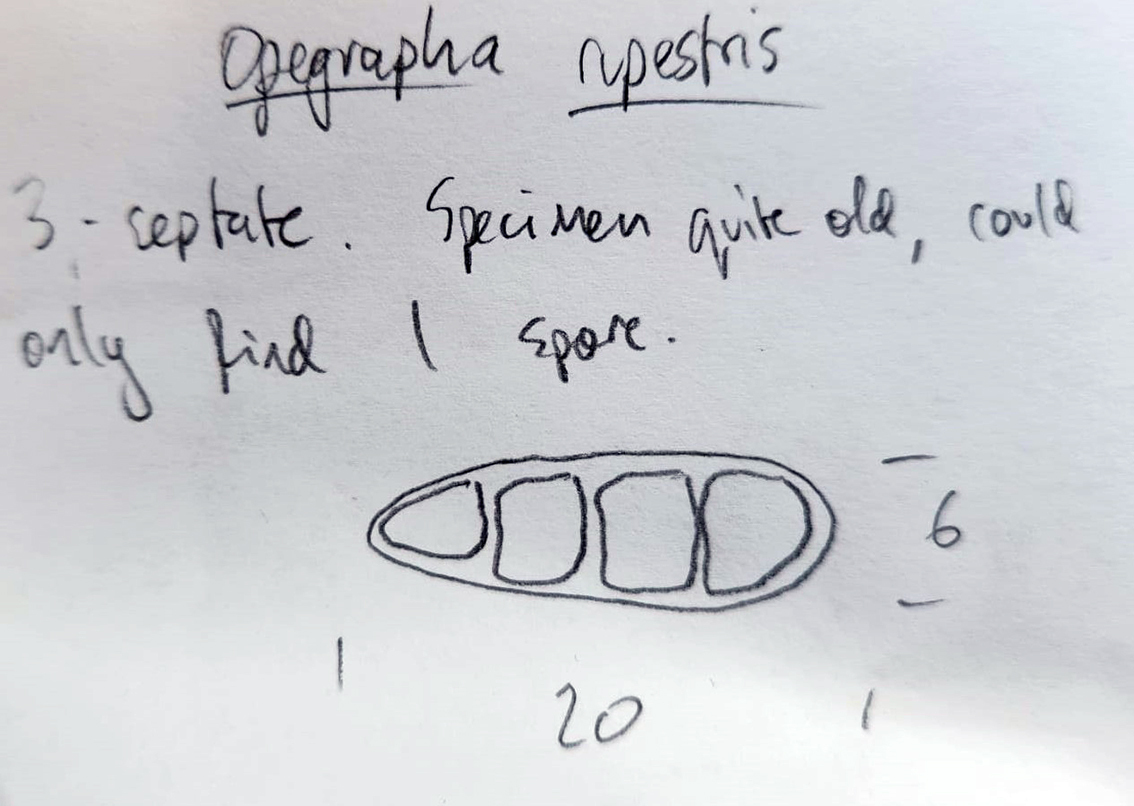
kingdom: Fungi
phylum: Ascomycota
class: Arthoniomycetes
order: Arthoniales
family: Opegraphaceae
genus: Opegrapha
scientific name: Opegrapha rupestris
